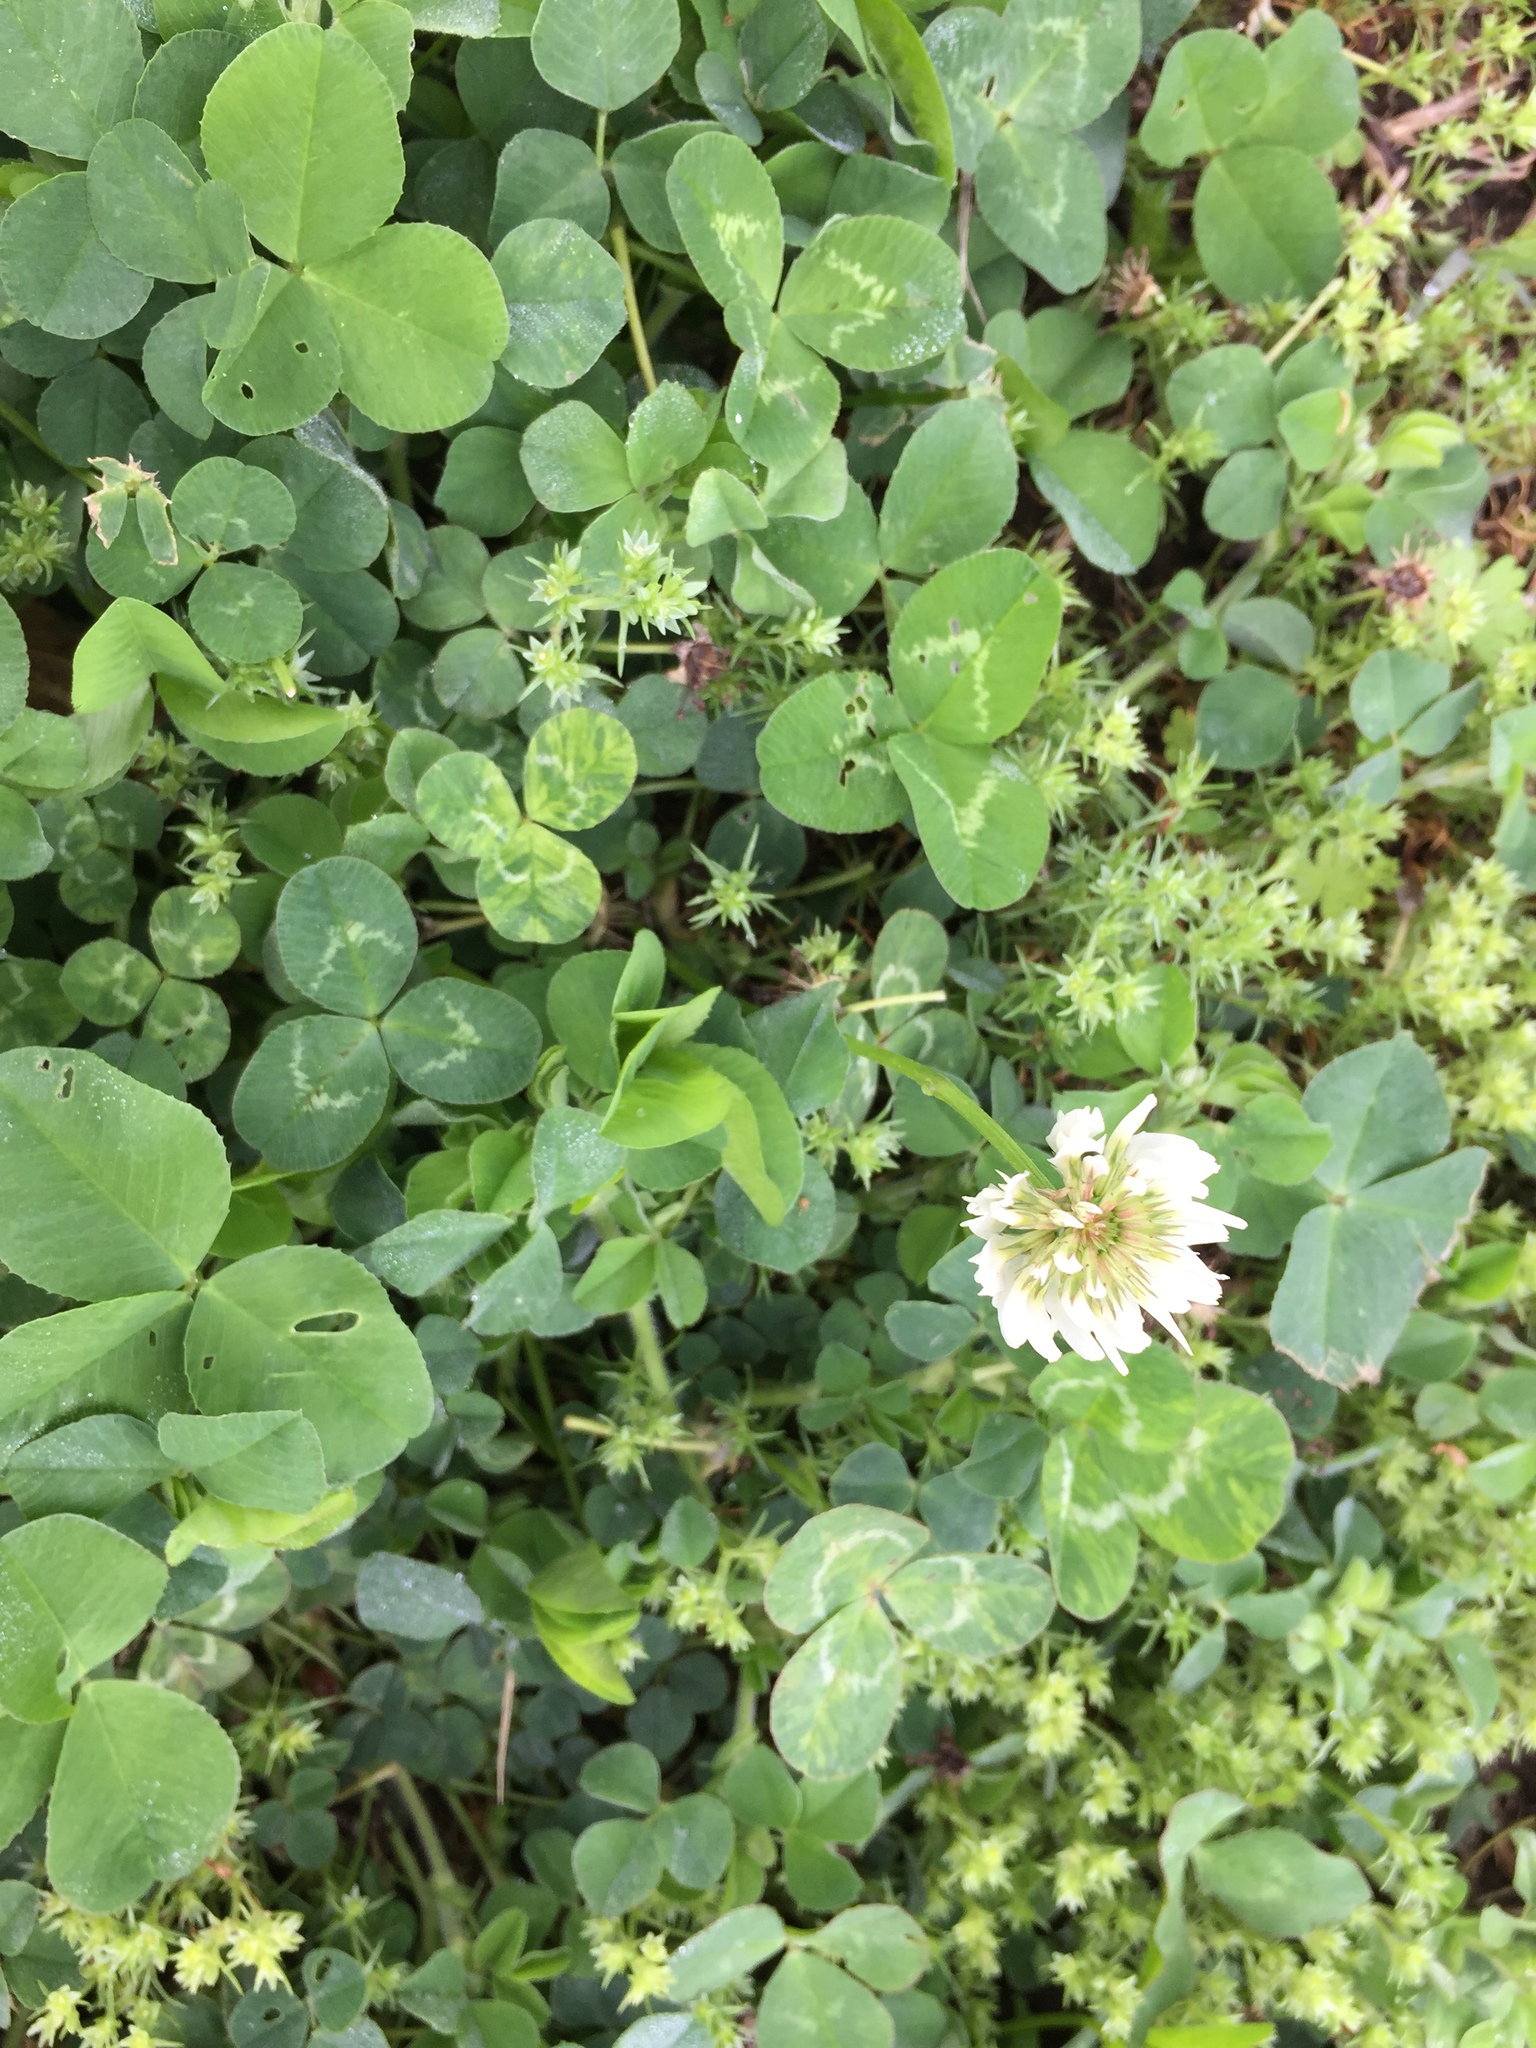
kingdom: Plantae
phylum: Tracheophyta
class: Magnoliopsida
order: Fabales
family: Fabaceae
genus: Trifolium
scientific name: Trifolium repens
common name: White clover
